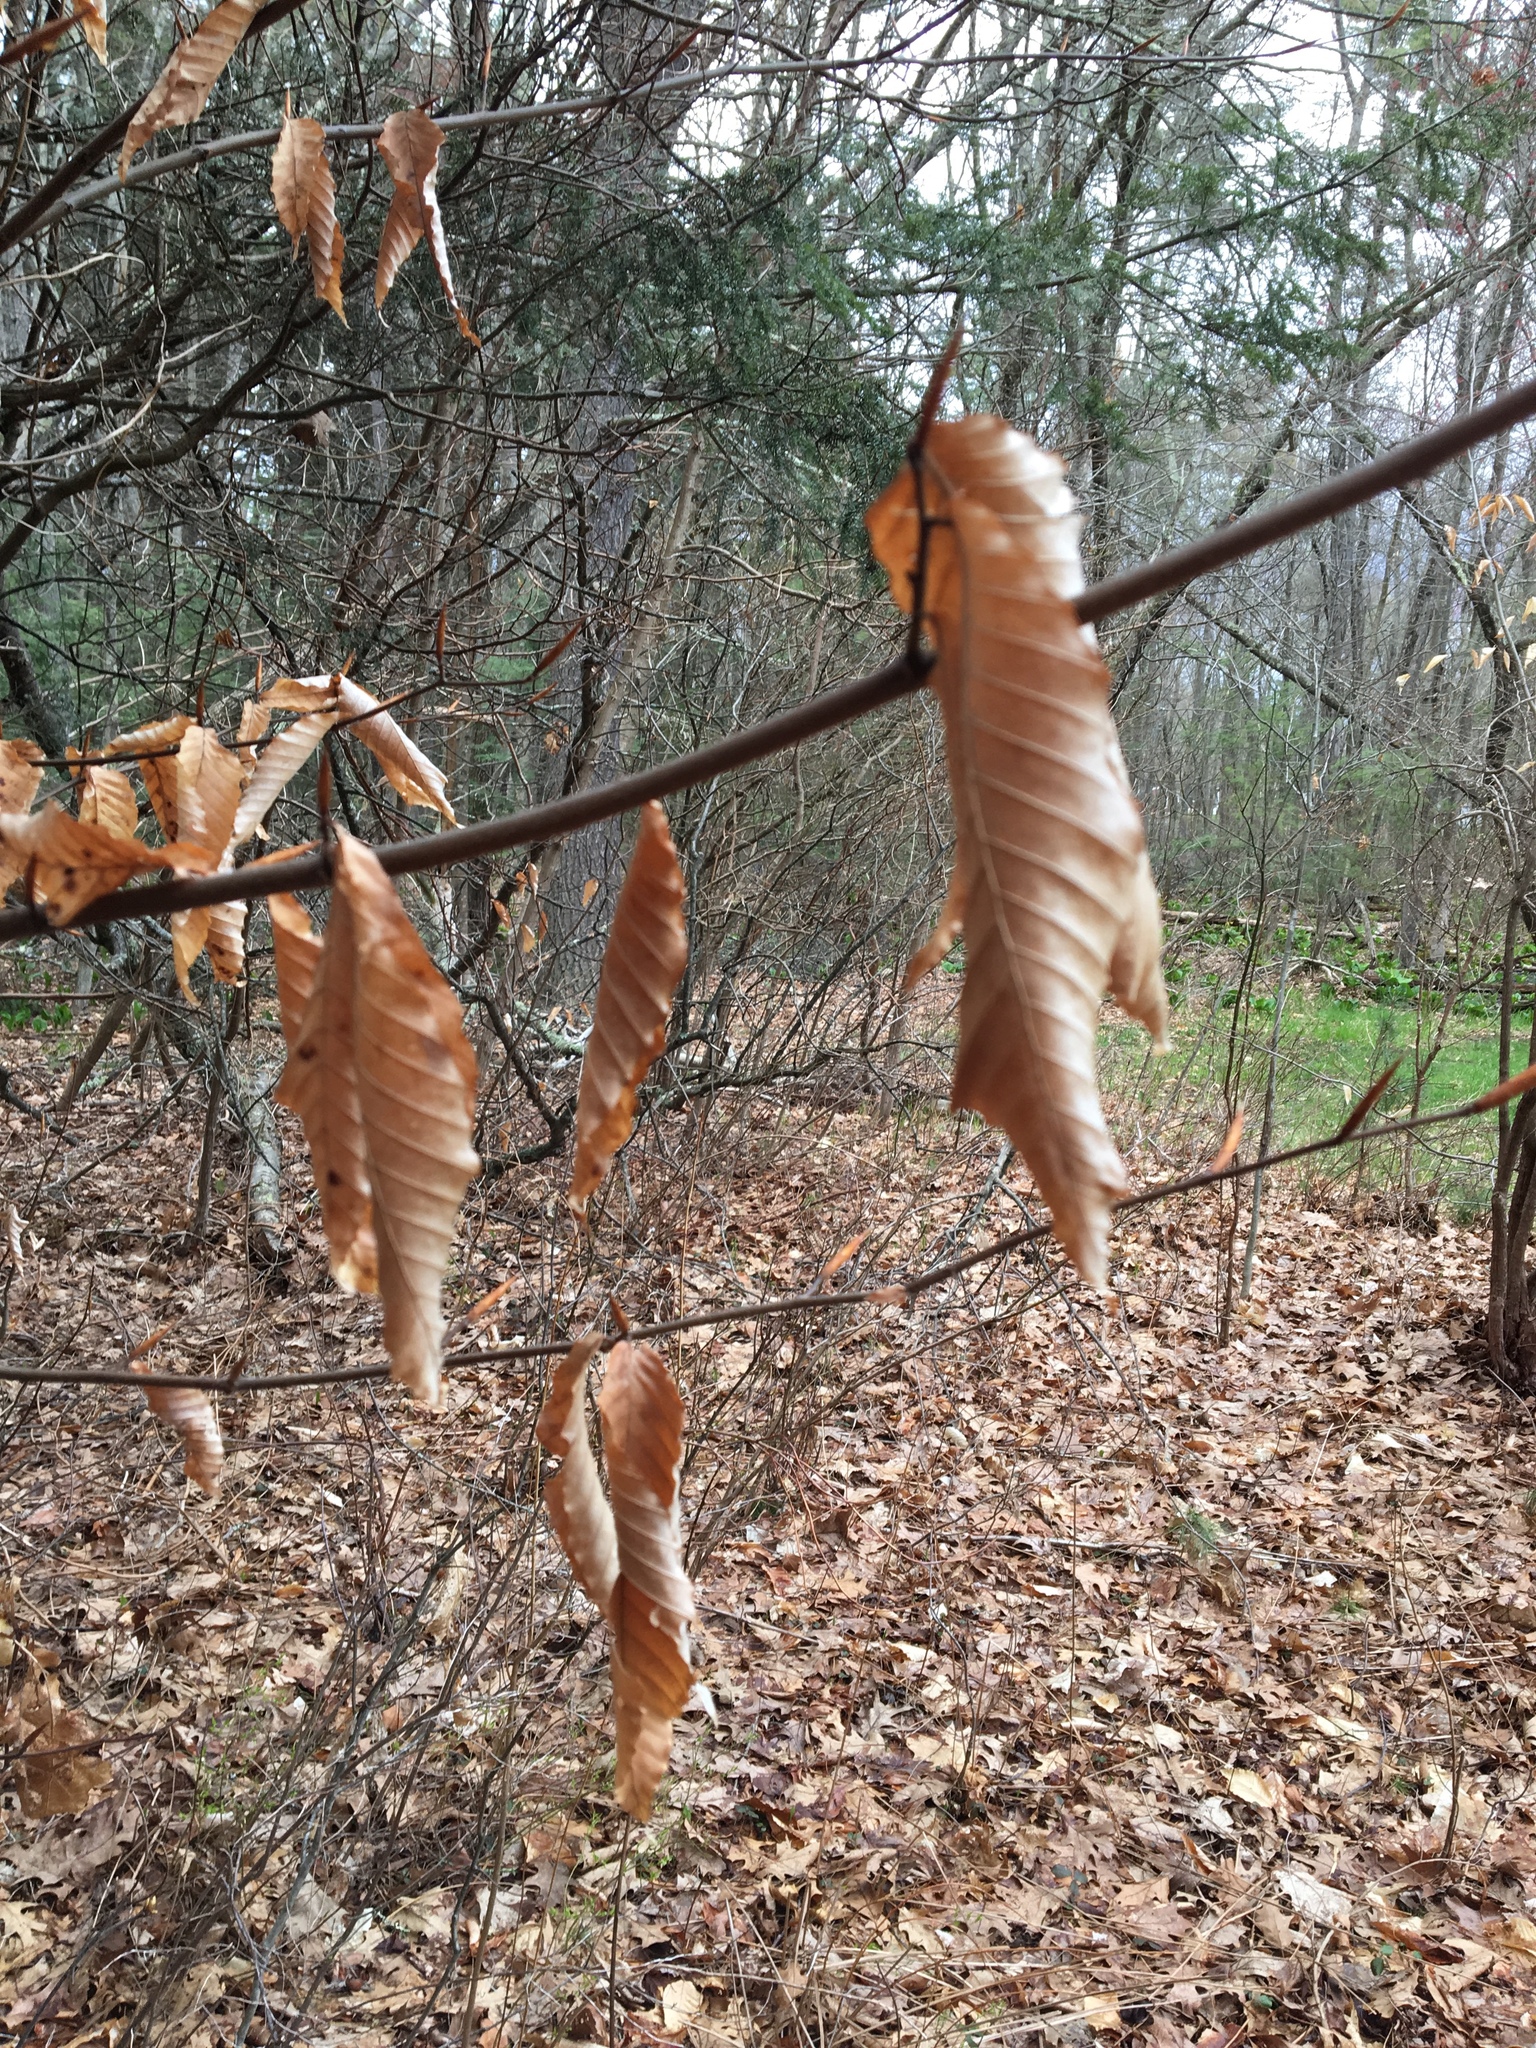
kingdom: Plantae
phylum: Tracheophyta
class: Magnoliopsida
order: Fagales
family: Fagaceae
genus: Fagus
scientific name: Fagus grandifolia
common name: American beech
